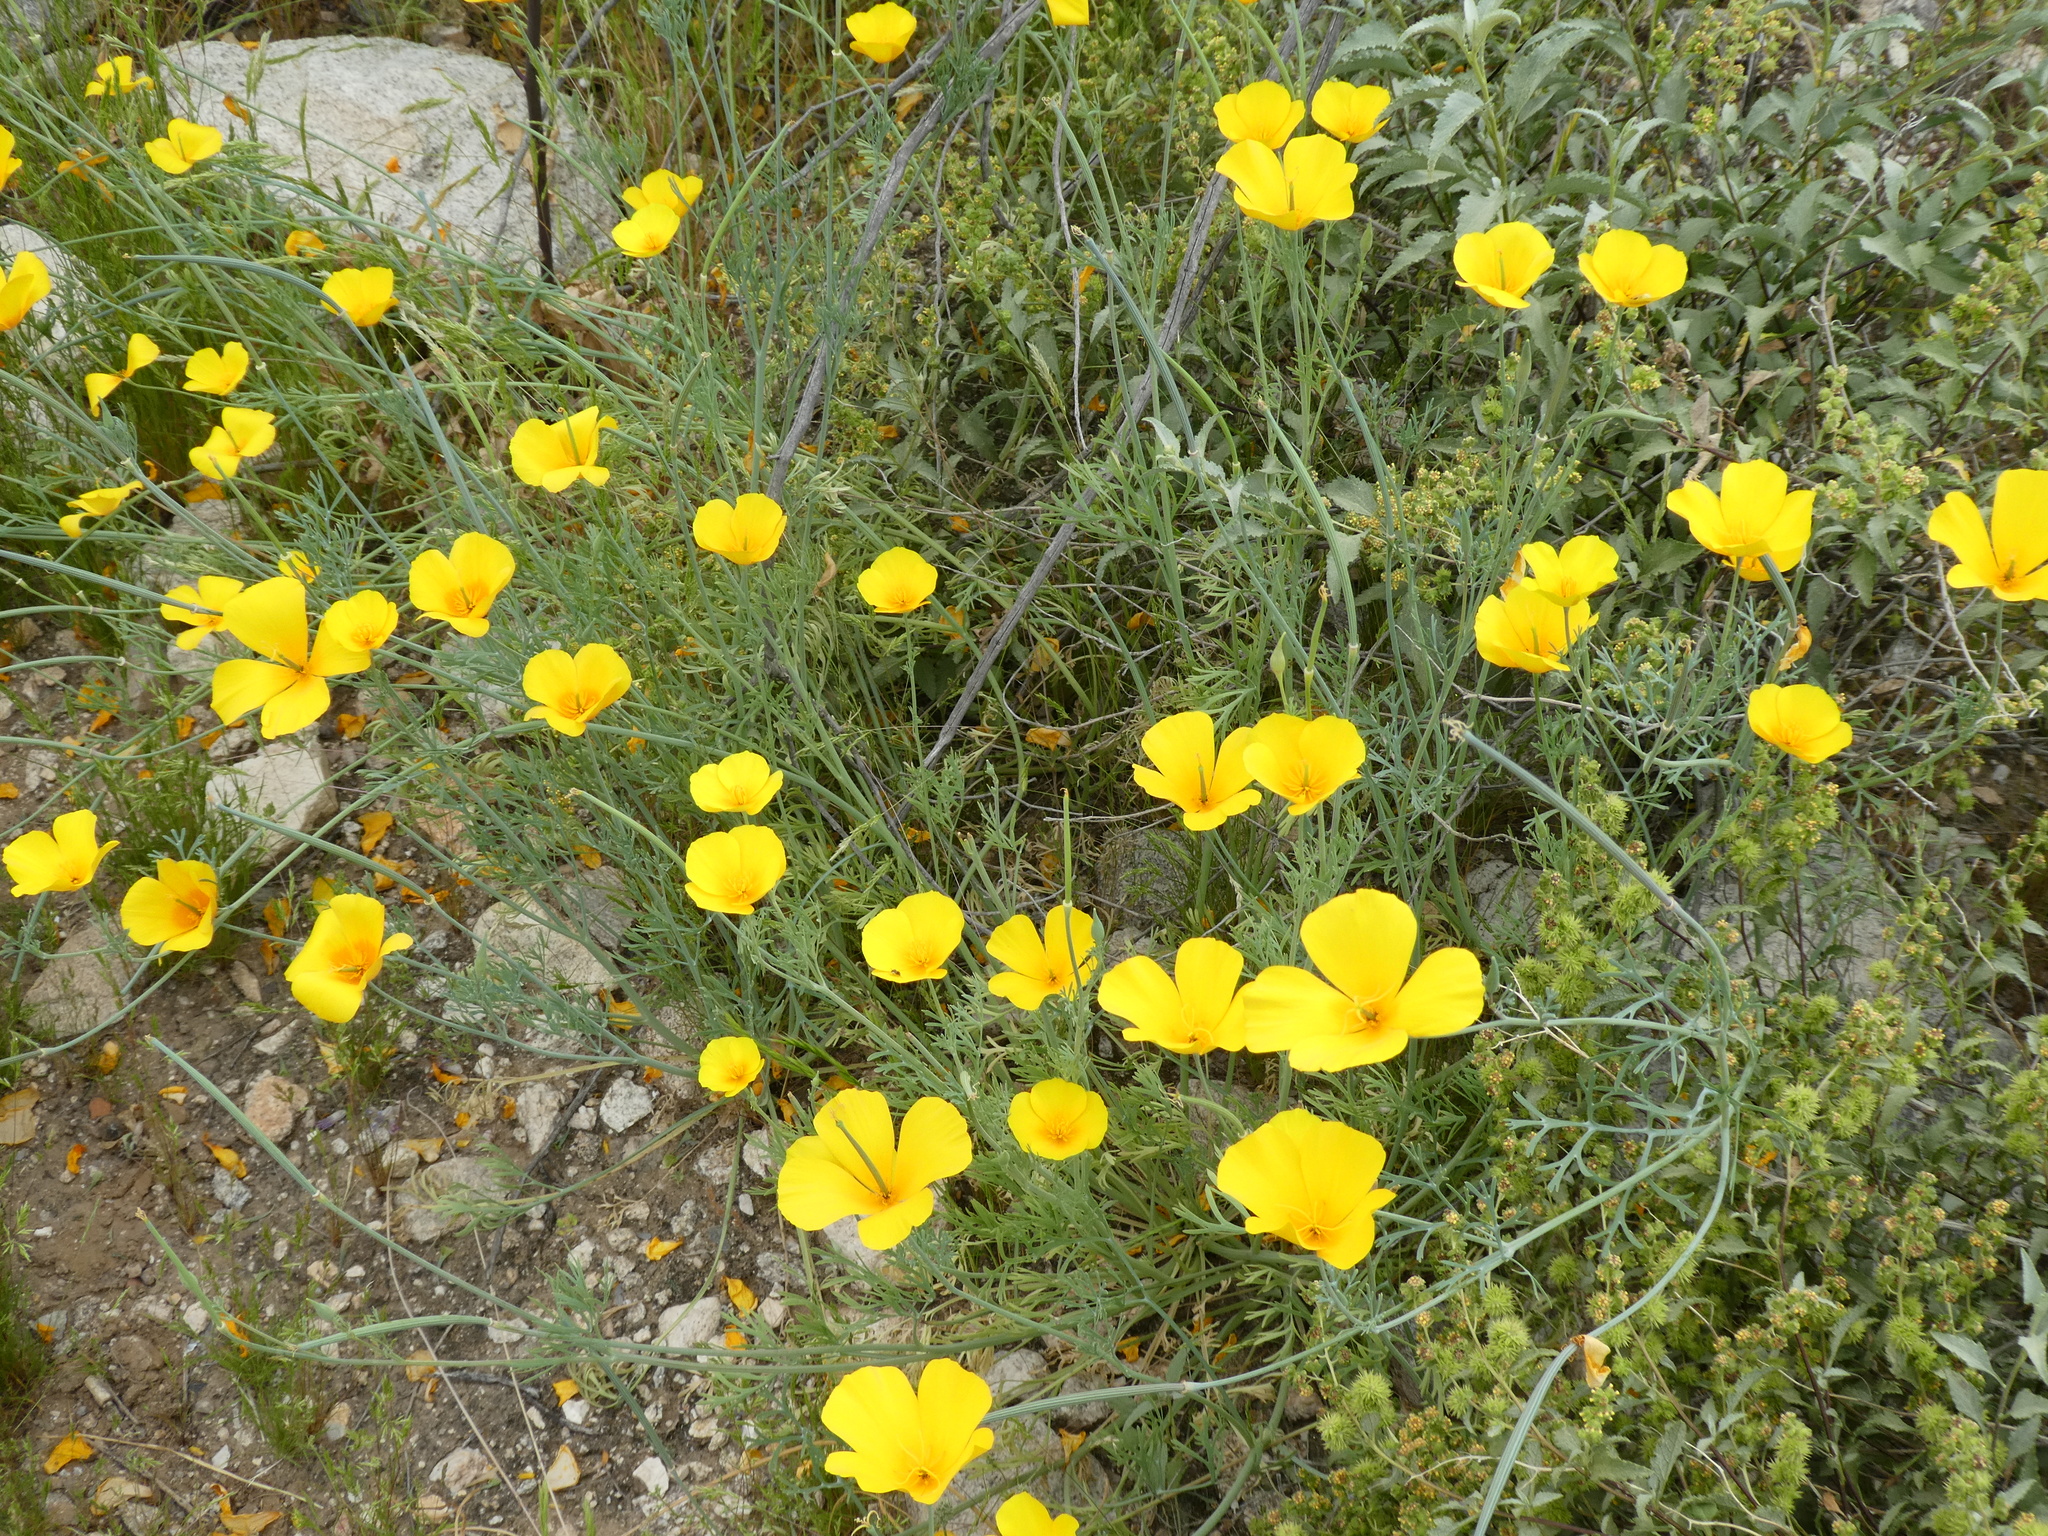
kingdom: Plantae
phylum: Tracheophyta
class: Magnoliopsida
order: Ranunculales
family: Papaveraceae
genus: Eschscholzia
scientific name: Eschscholzia californica
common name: California poppy
